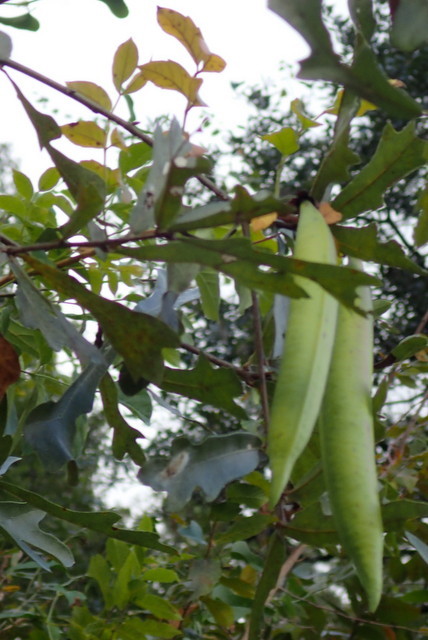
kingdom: Plantae
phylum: Tracheophyta
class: Magnoliopsida
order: Lamiales
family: Bignoniaceae
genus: Campsis
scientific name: Campsis radicans
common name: Trumpet-creeper
